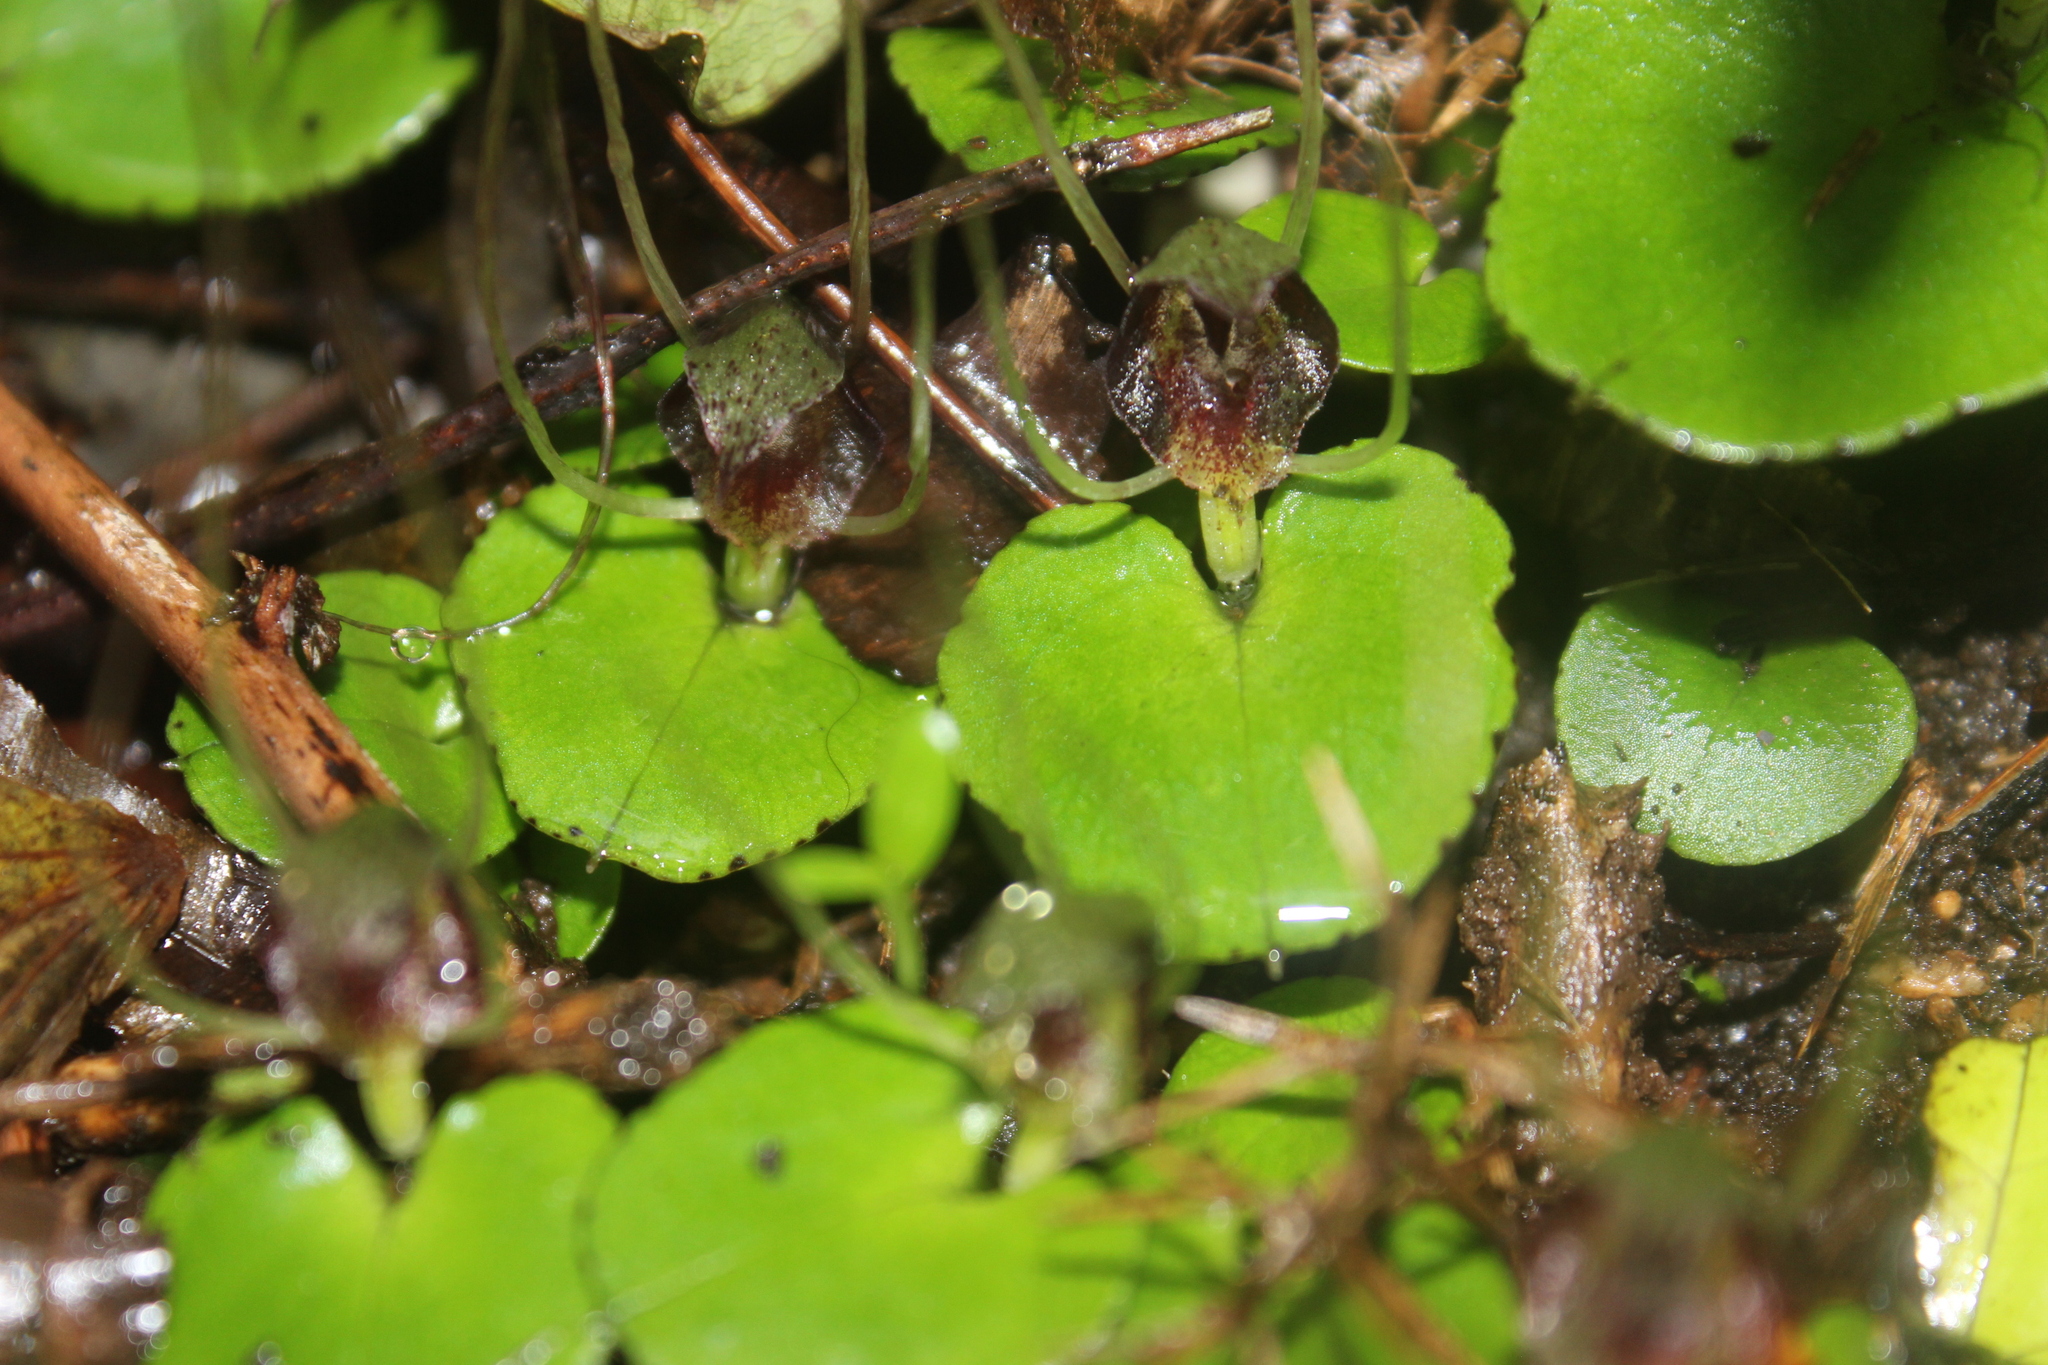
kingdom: Plantae
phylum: Tracheophyta
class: Liliopsida
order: Asparagales
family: Orchidaceae
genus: Corybas
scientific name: Corybas hatchii
